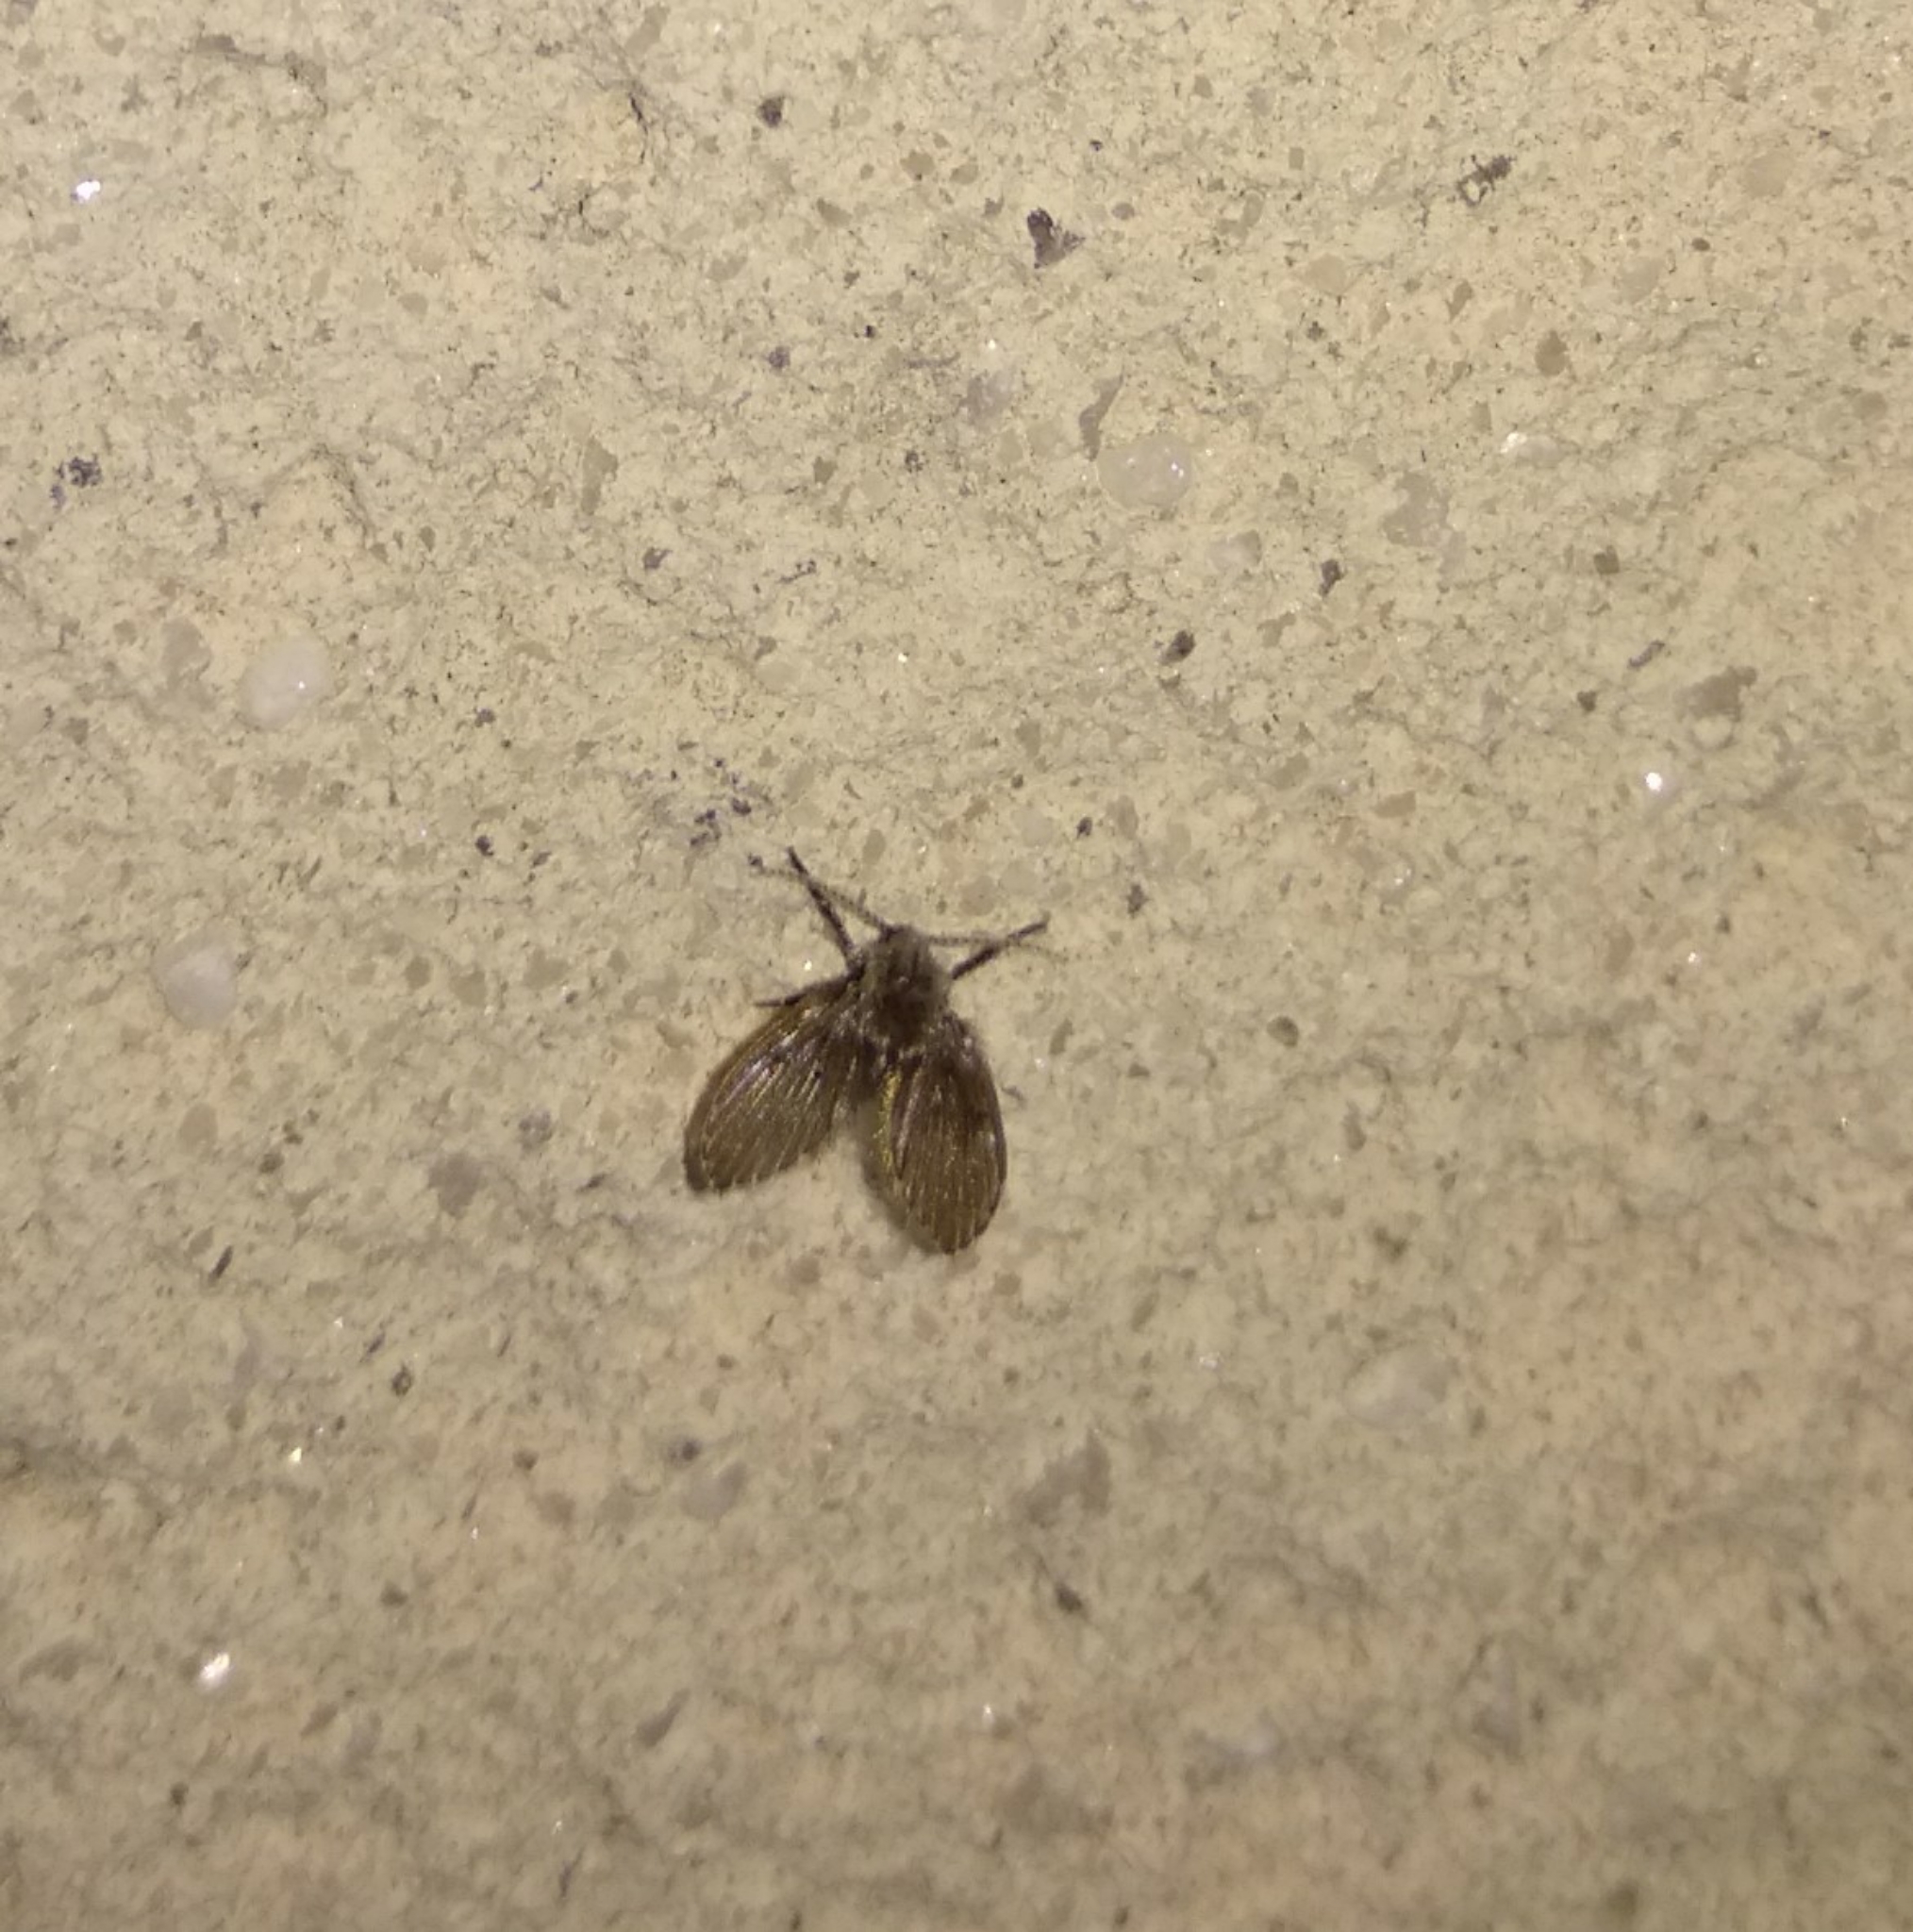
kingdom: Animalia
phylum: Arthropoda
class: Insecta
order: Diptera
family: Psychodidae
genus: Clogmia
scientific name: Clogmia albipunctatus
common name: White-spotted moth fly
